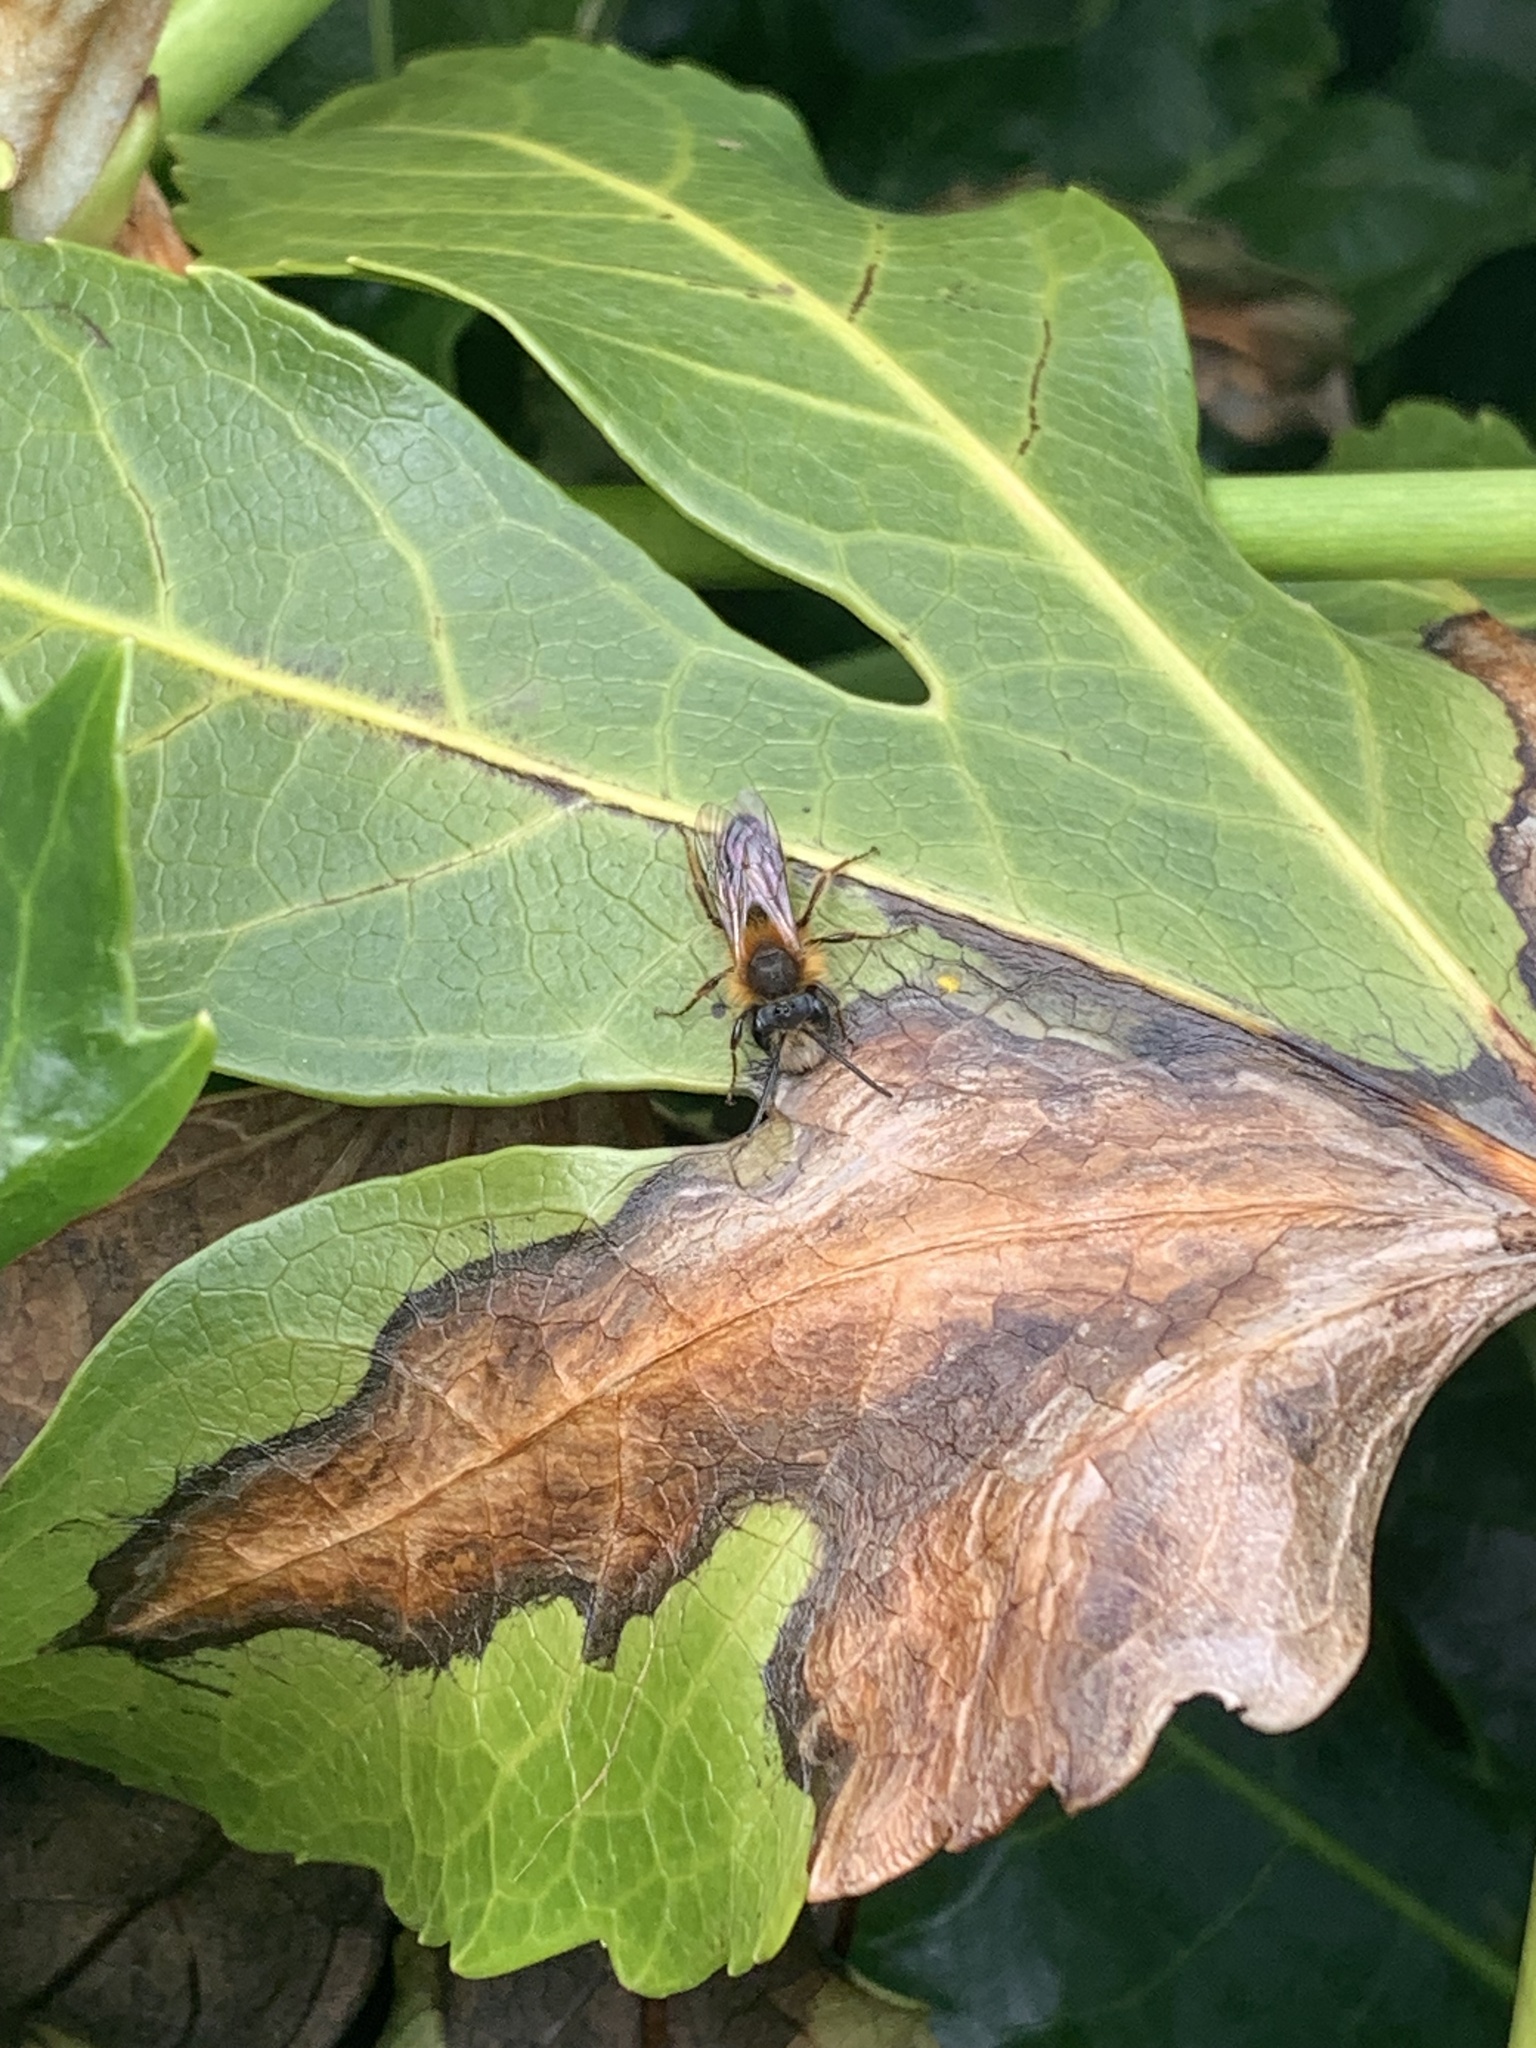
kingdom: Animalia
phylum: Arthropoda
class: Insecta
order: Hymenoptera
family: Andrenidae
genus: Andrena
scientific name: Andrena fulva
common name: Tawny mining bee
